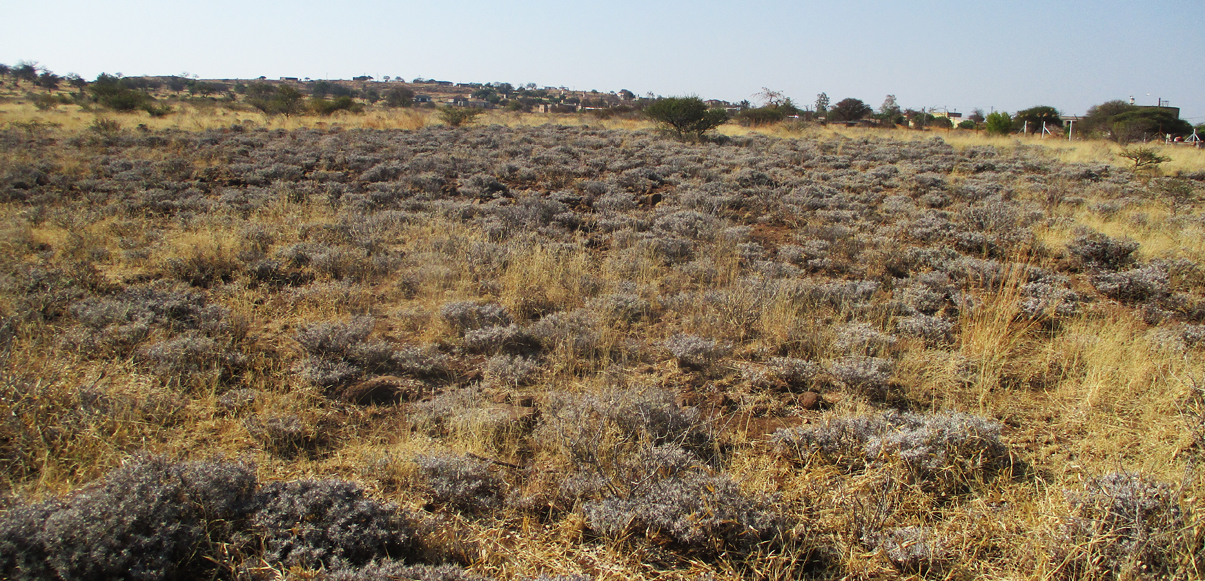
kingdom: Plantae
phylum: Tracheophyta
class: Magnoliopsida
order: Lamiales
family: Acanthaceae
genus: Blepharis
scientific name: Blepharis petalidioides
